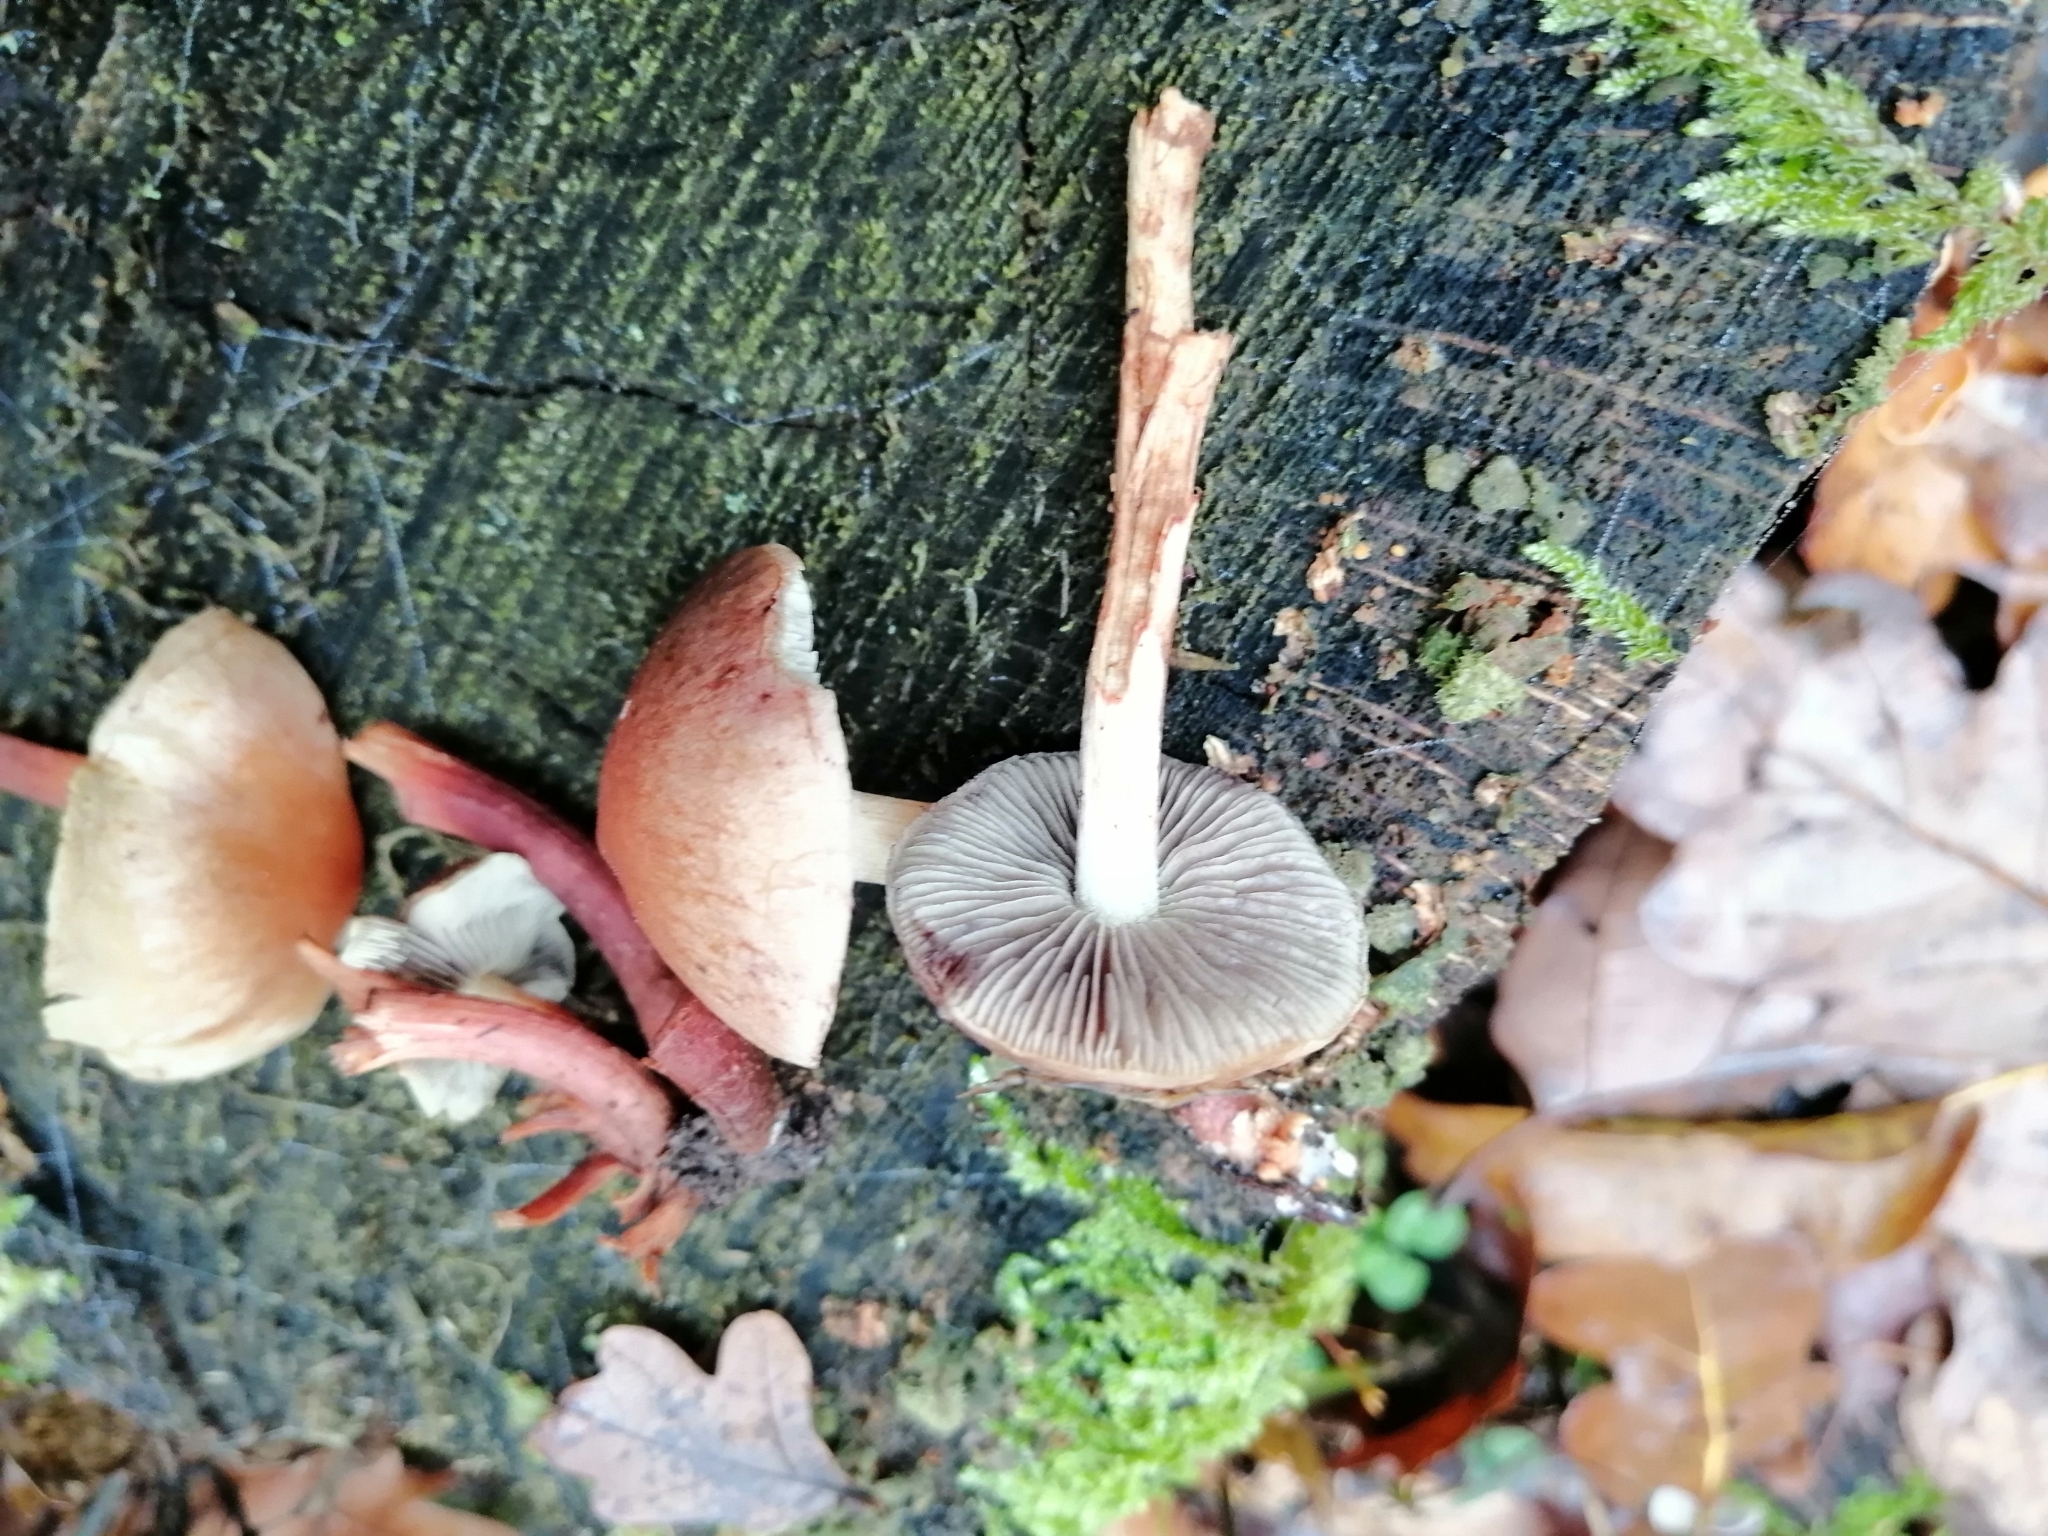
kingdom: Fungi
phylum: Basidiomycota
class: Agaricomycetes
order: Agaricales
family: Strophariaceae
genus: Hypholoma
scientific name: Hypholoma lateritium
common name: Brick caps
